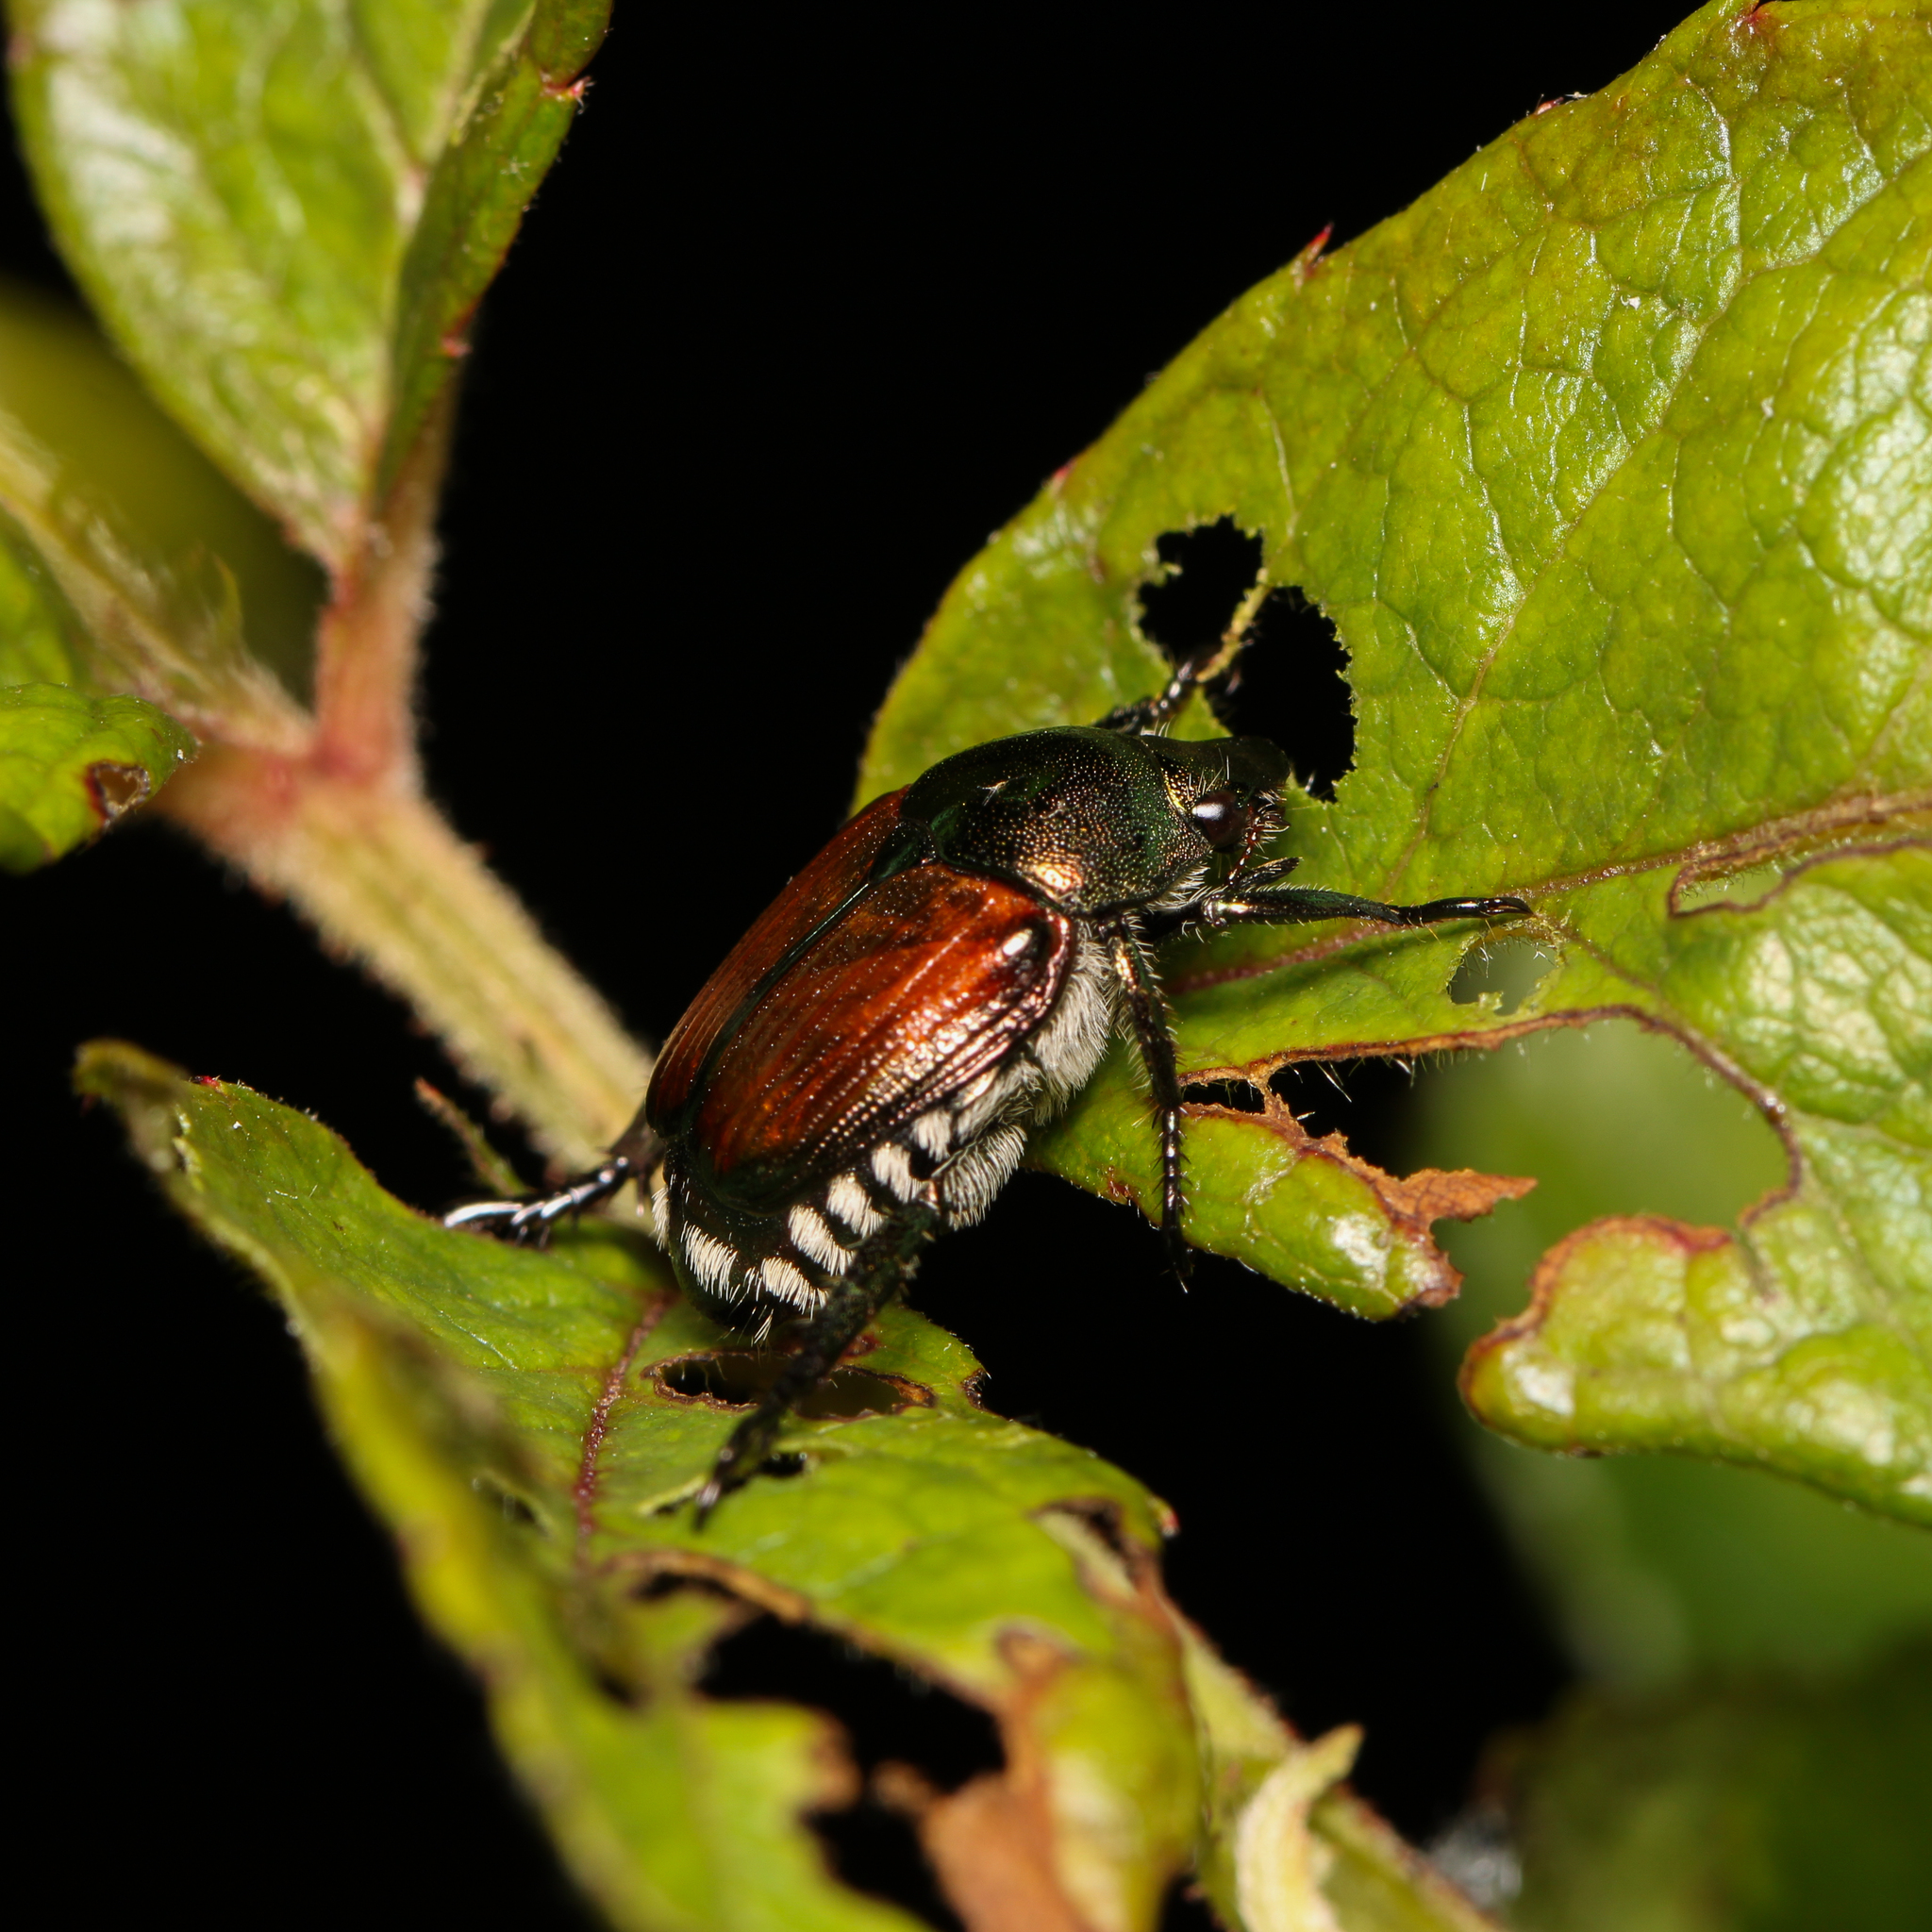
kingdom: Animalia
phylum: Arthropoda
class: Insecta
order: Coleoptera
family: Scarabaeidae
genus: Popillia
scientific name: Popillia japonica
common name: Japanese beetle
